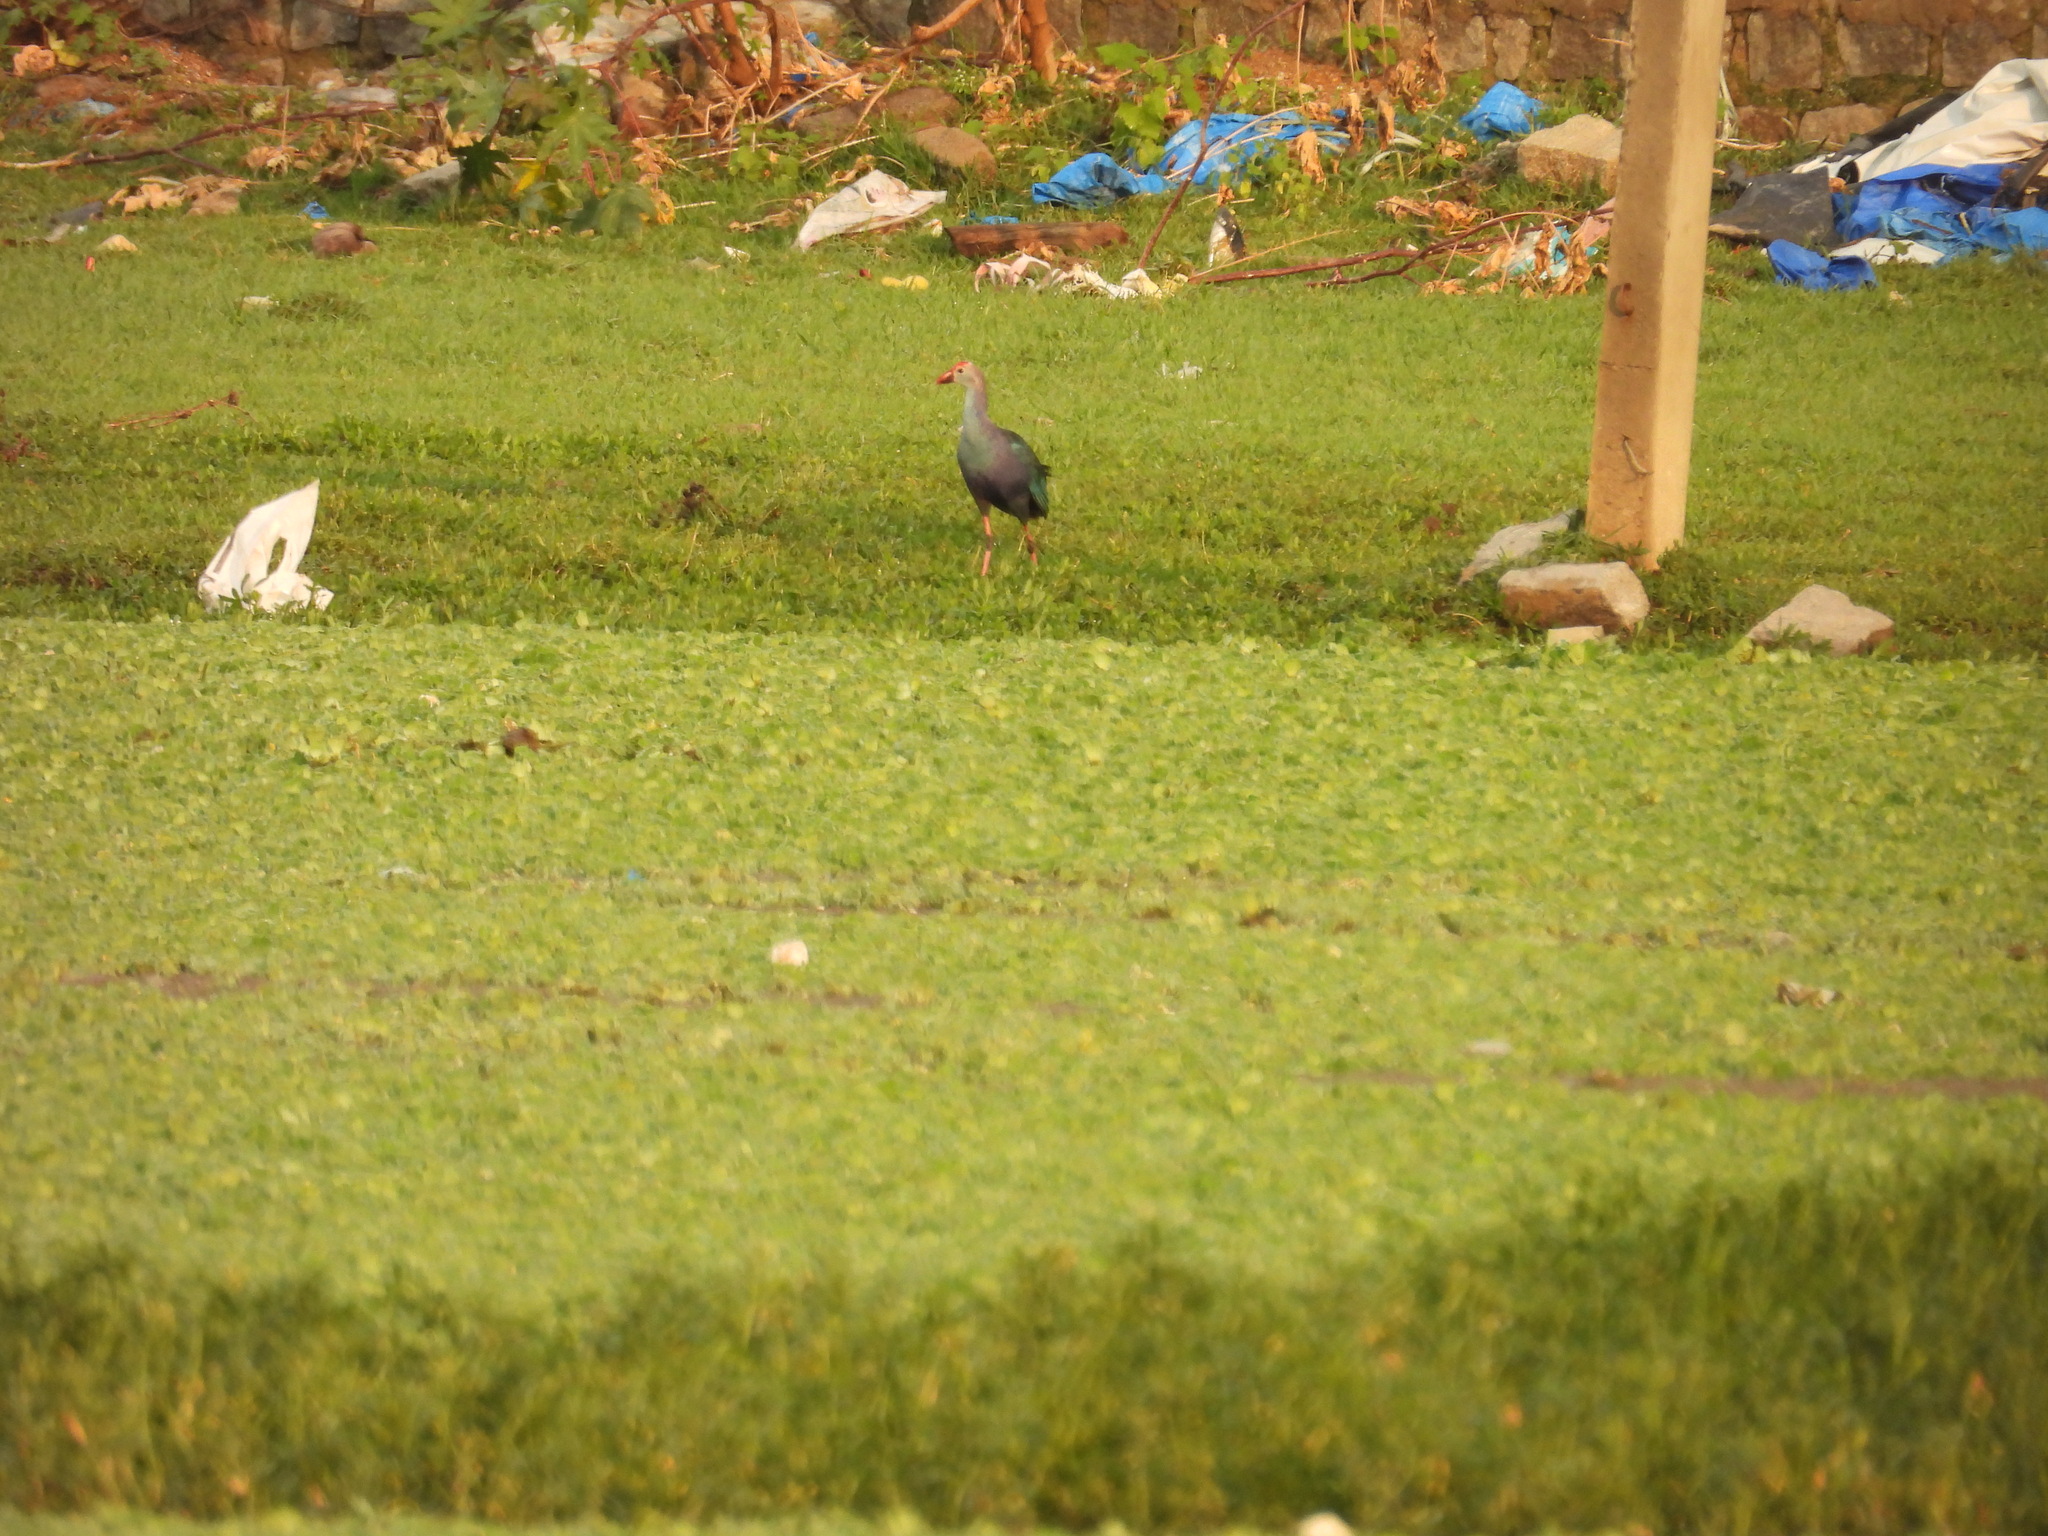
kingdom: Animalia
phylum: Chordata
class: Aves
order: Gruiformes
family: Rallidae
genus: Porphyrio
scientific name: Porphyrio porphyrio
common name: Purple swamphen
